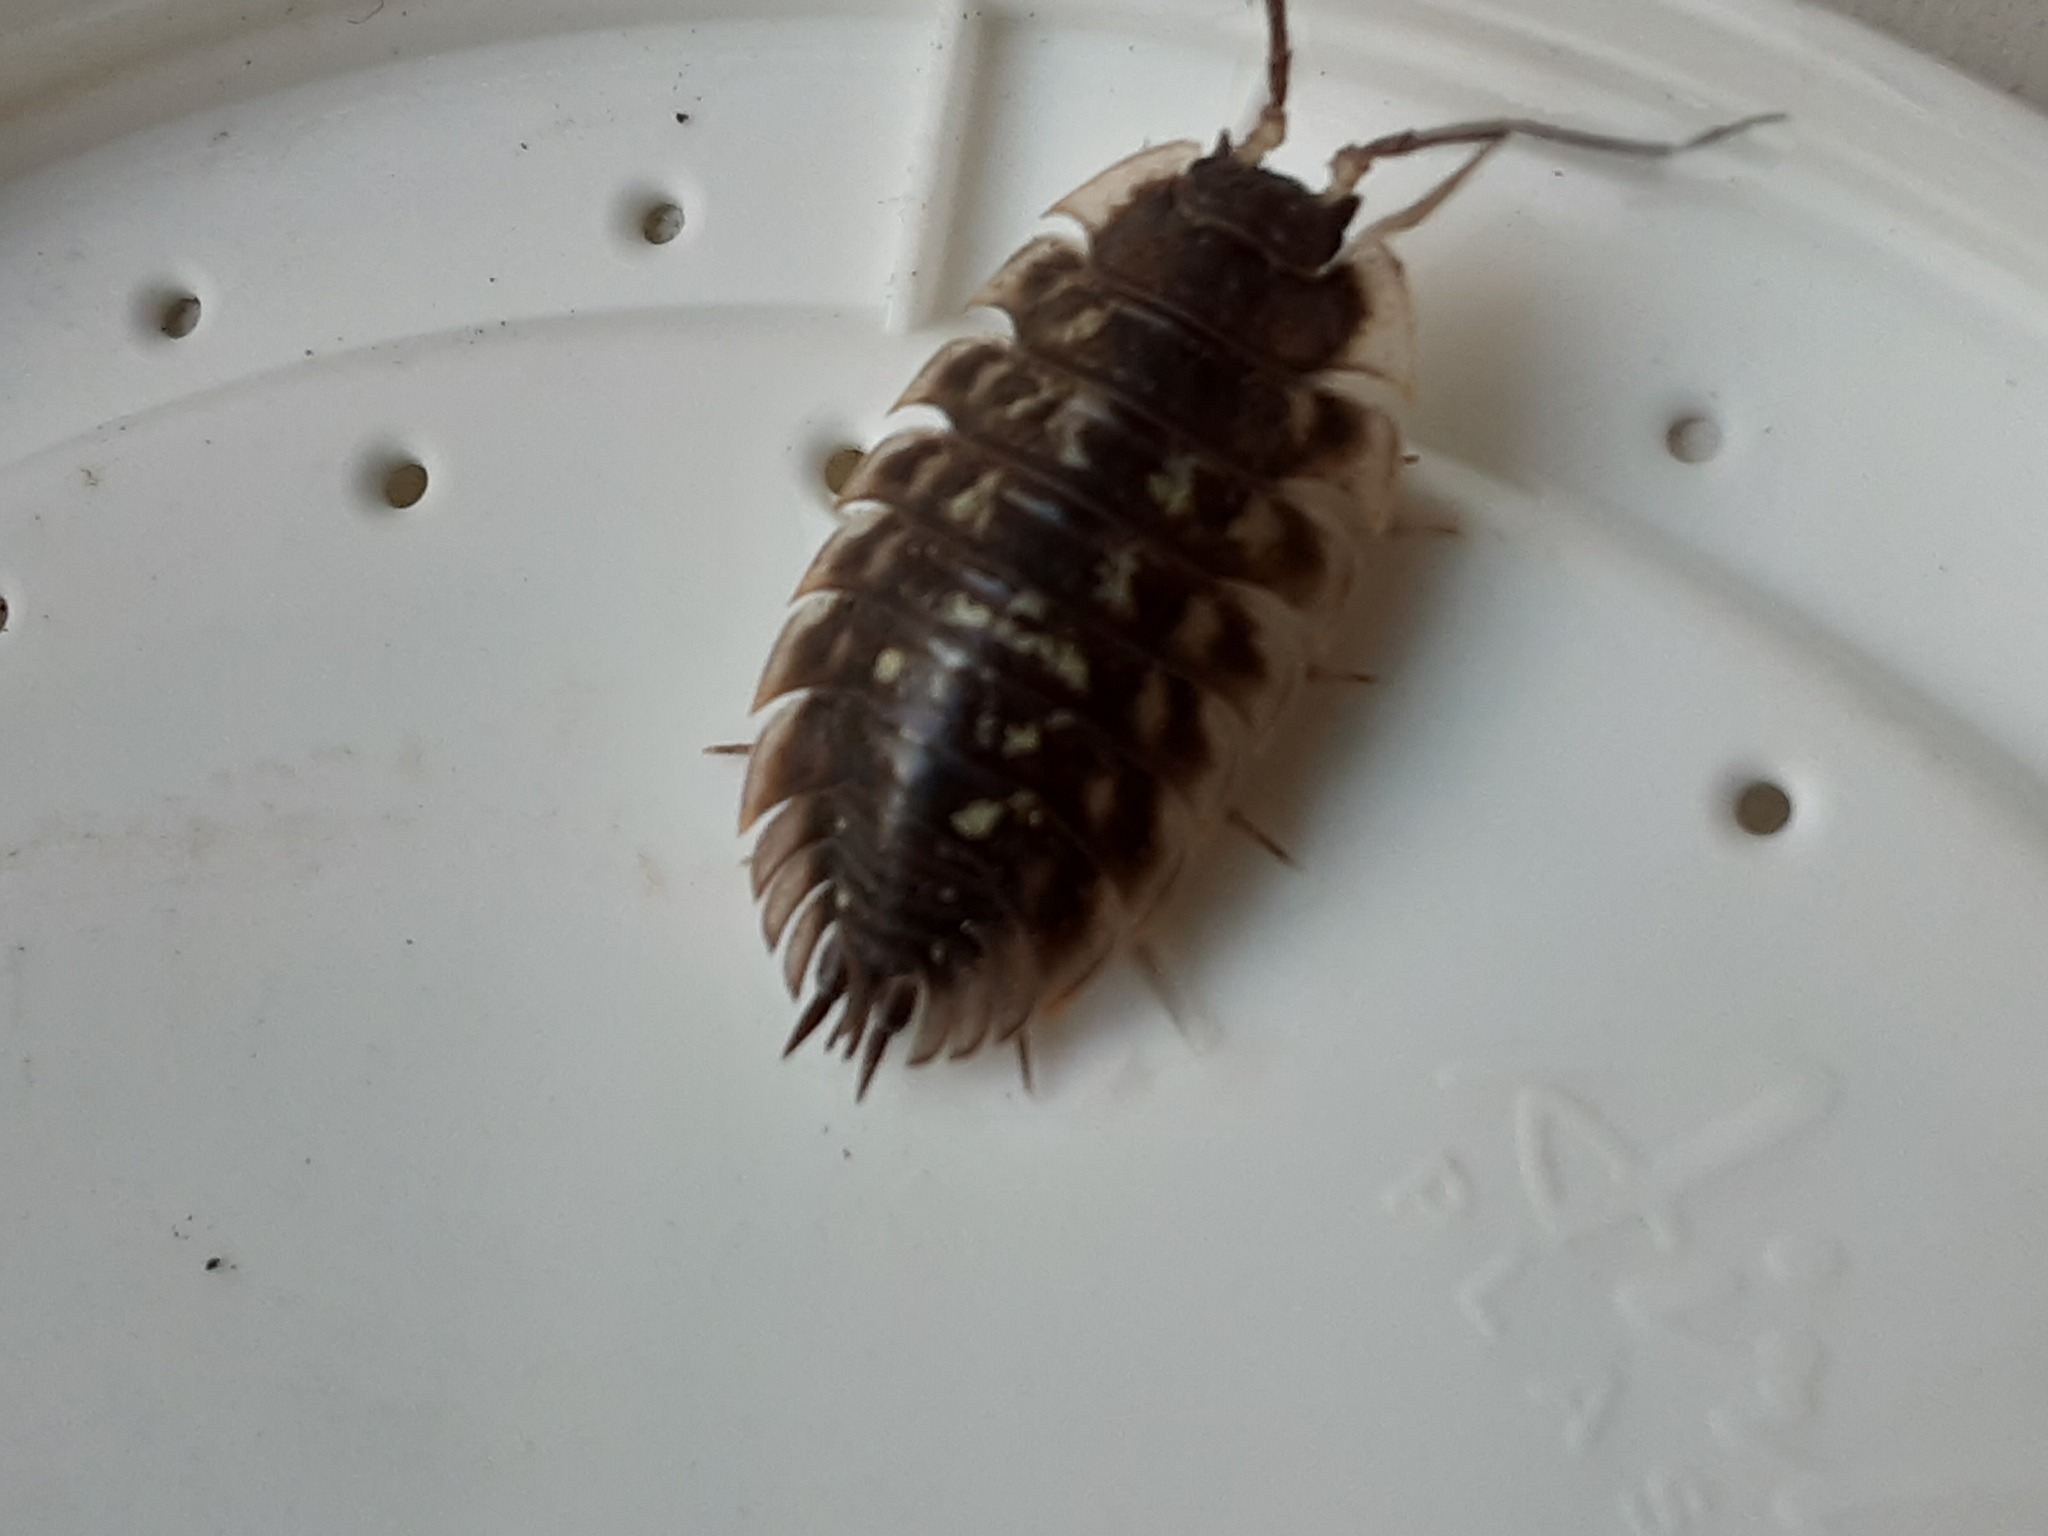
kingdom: Animalia
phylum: Arthropoda
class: Malacostraca
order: Isopoda
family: Oniscidae
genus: Oniscus
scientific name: Oniscus asellus
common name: Common shiny woodlouse
